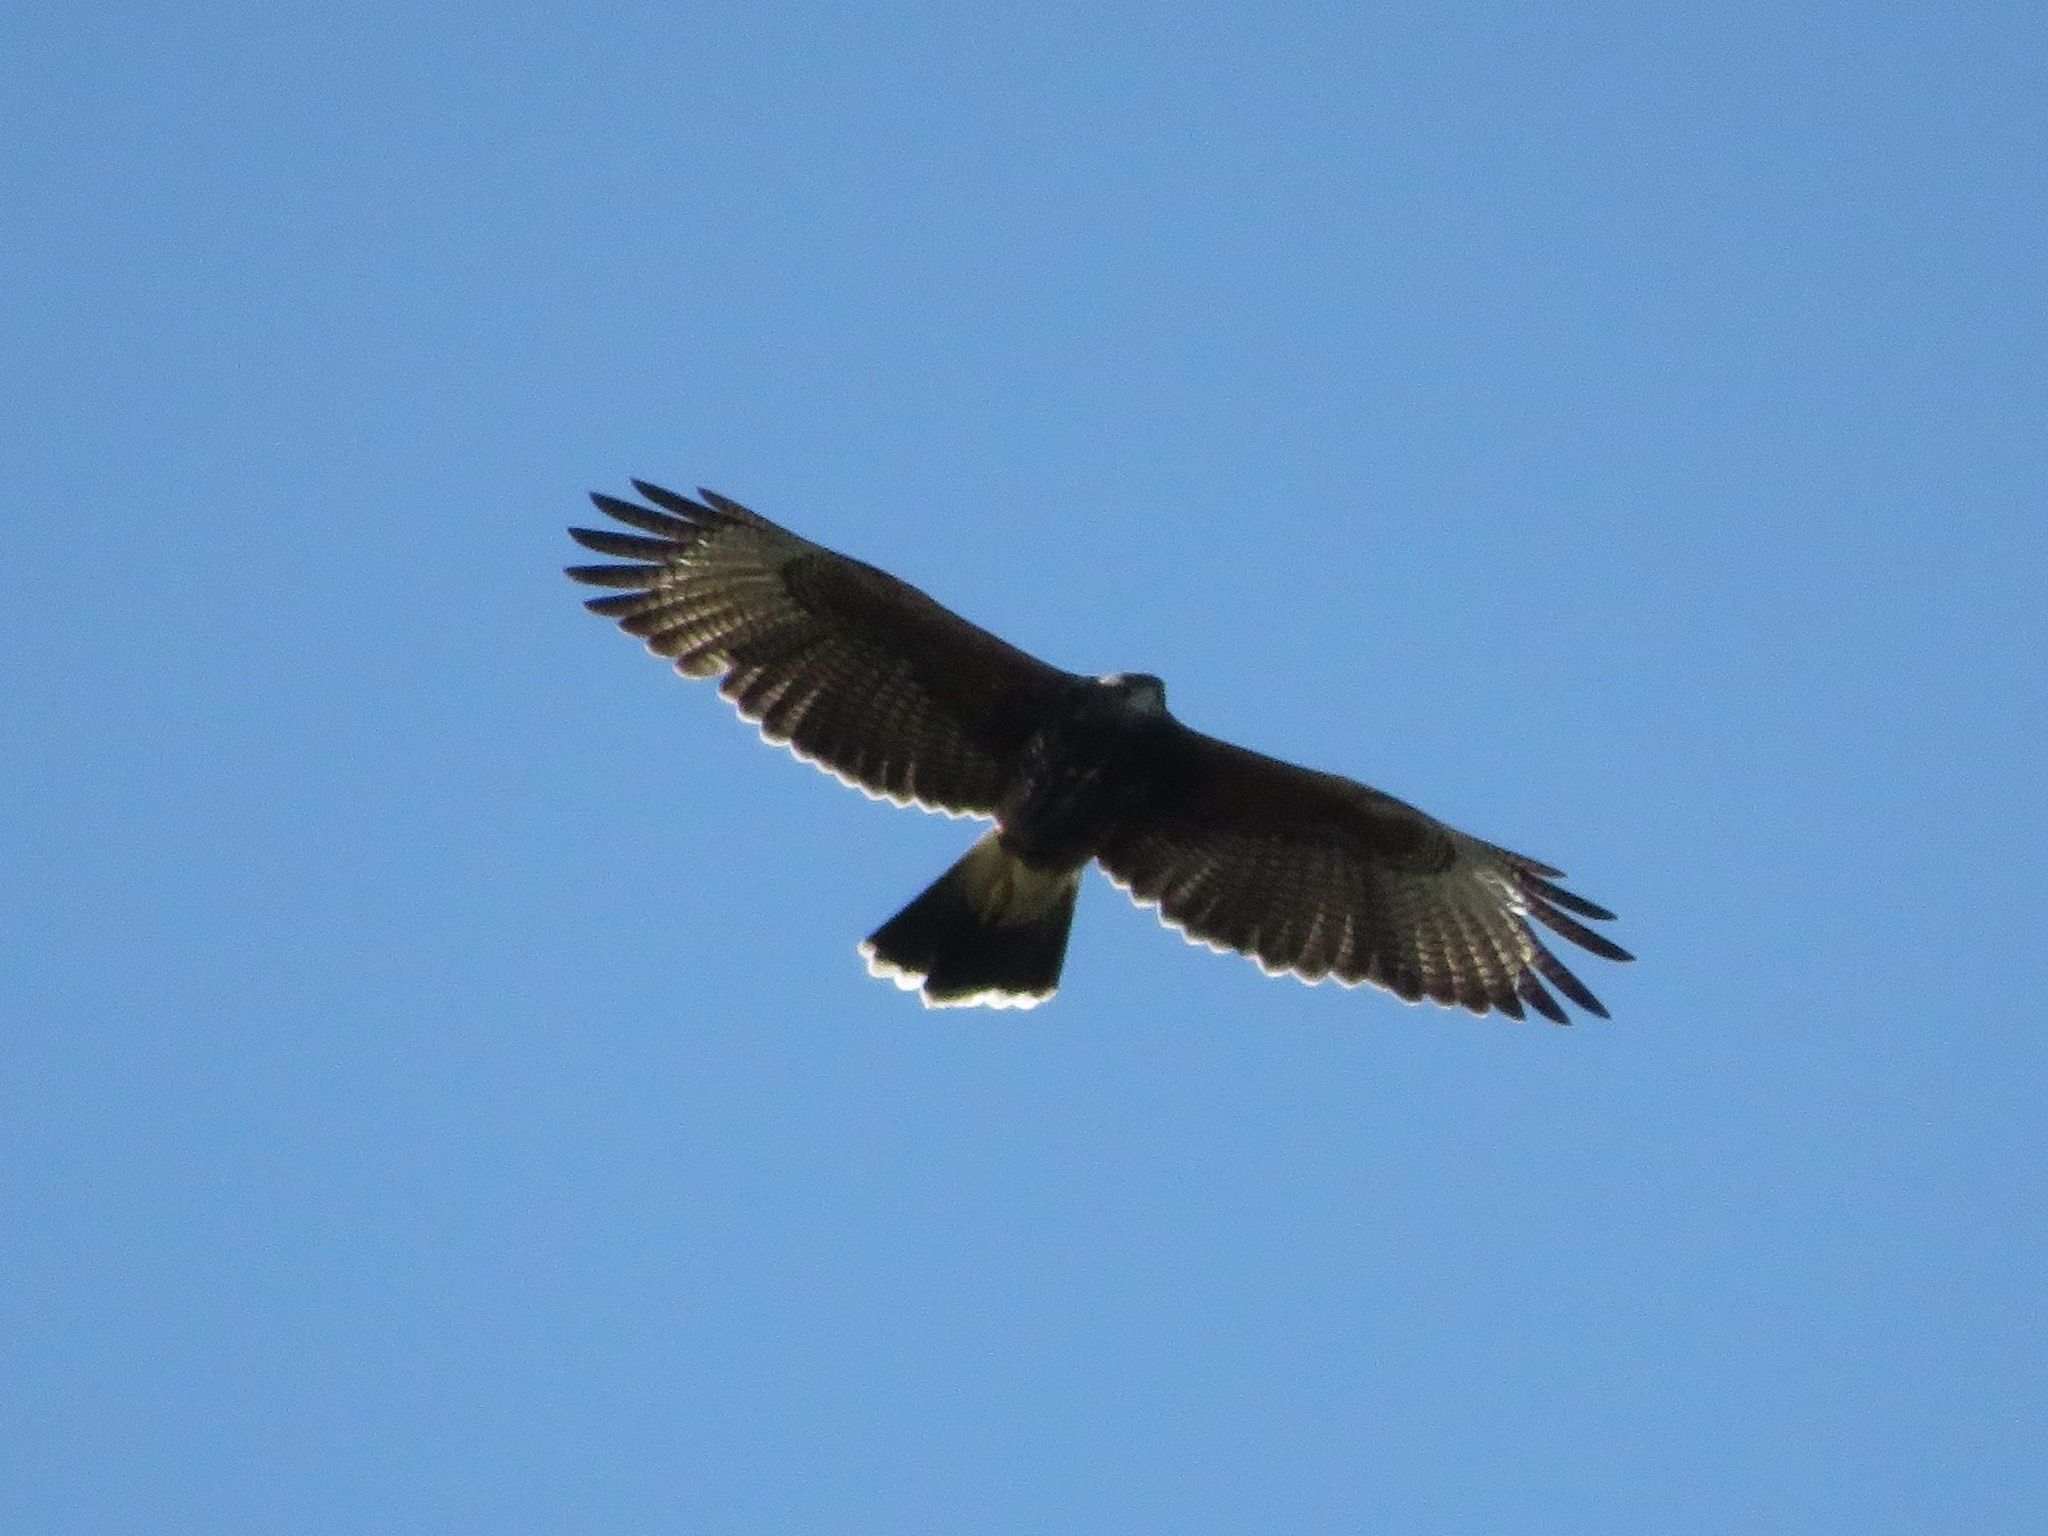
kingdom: Animalia
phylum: Chordata
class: Aves
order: Accipitriformes
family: Accipitridae
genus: Parabuteo
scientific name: Parabuteo unicinctus
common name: Harris's hawk
